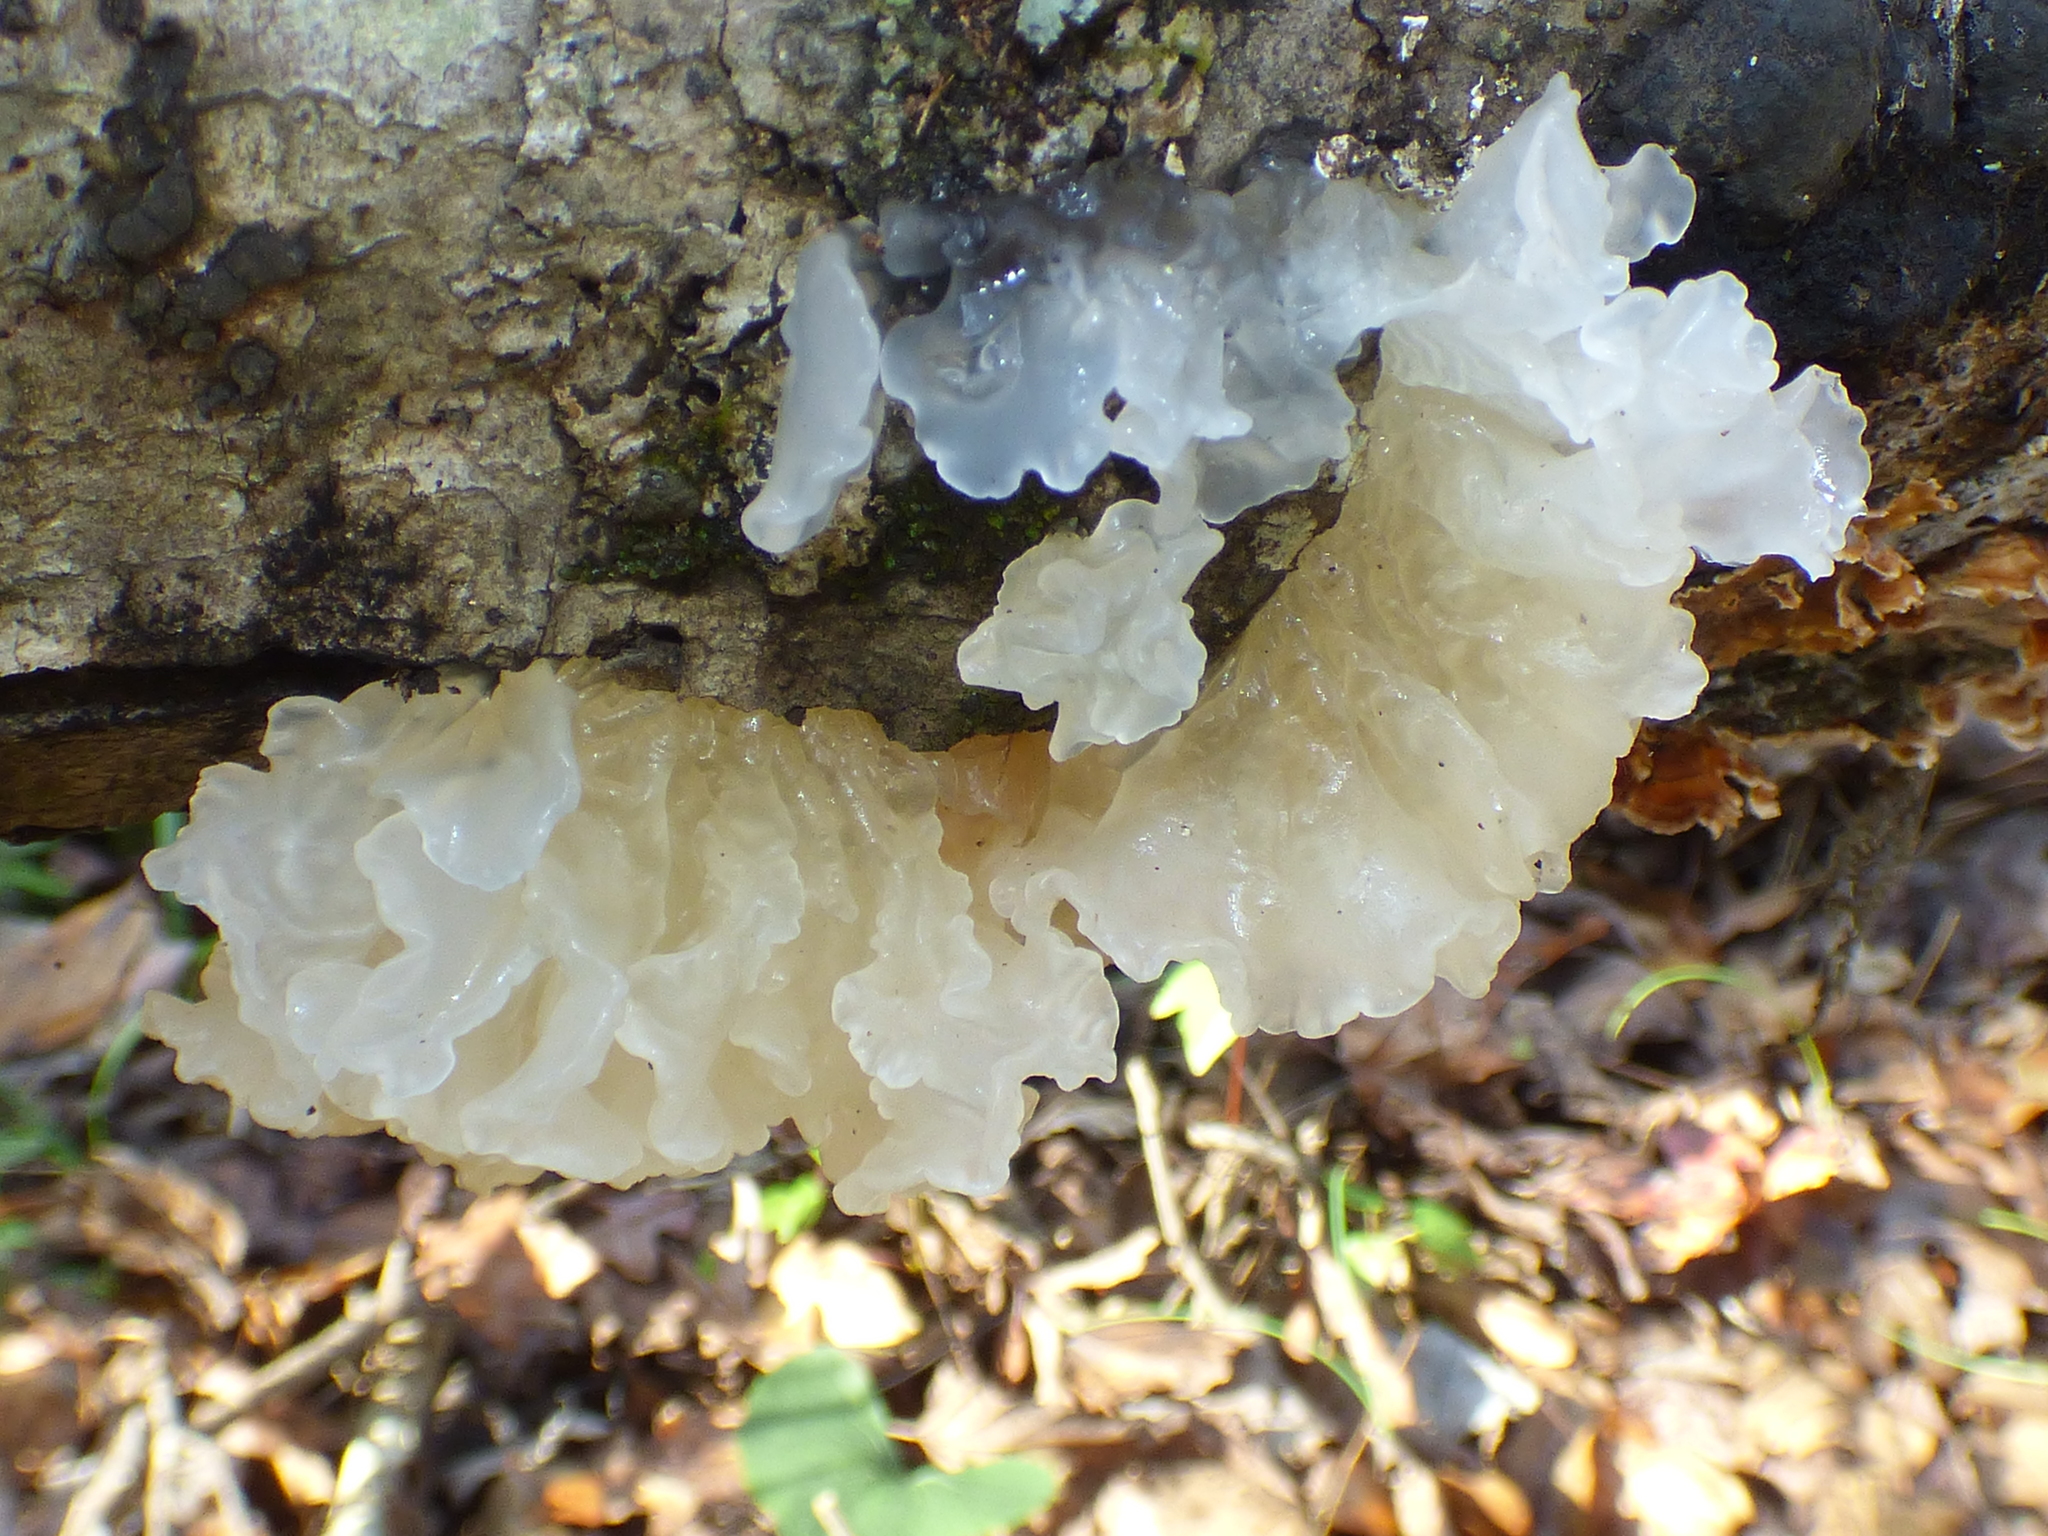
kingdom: Fungi
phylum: Basidiomycota
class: Tremellomycetes
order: Tremellales
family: Tremellaceae
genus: Tremella
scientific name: Tremella fuciformis
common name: Snow fungus
